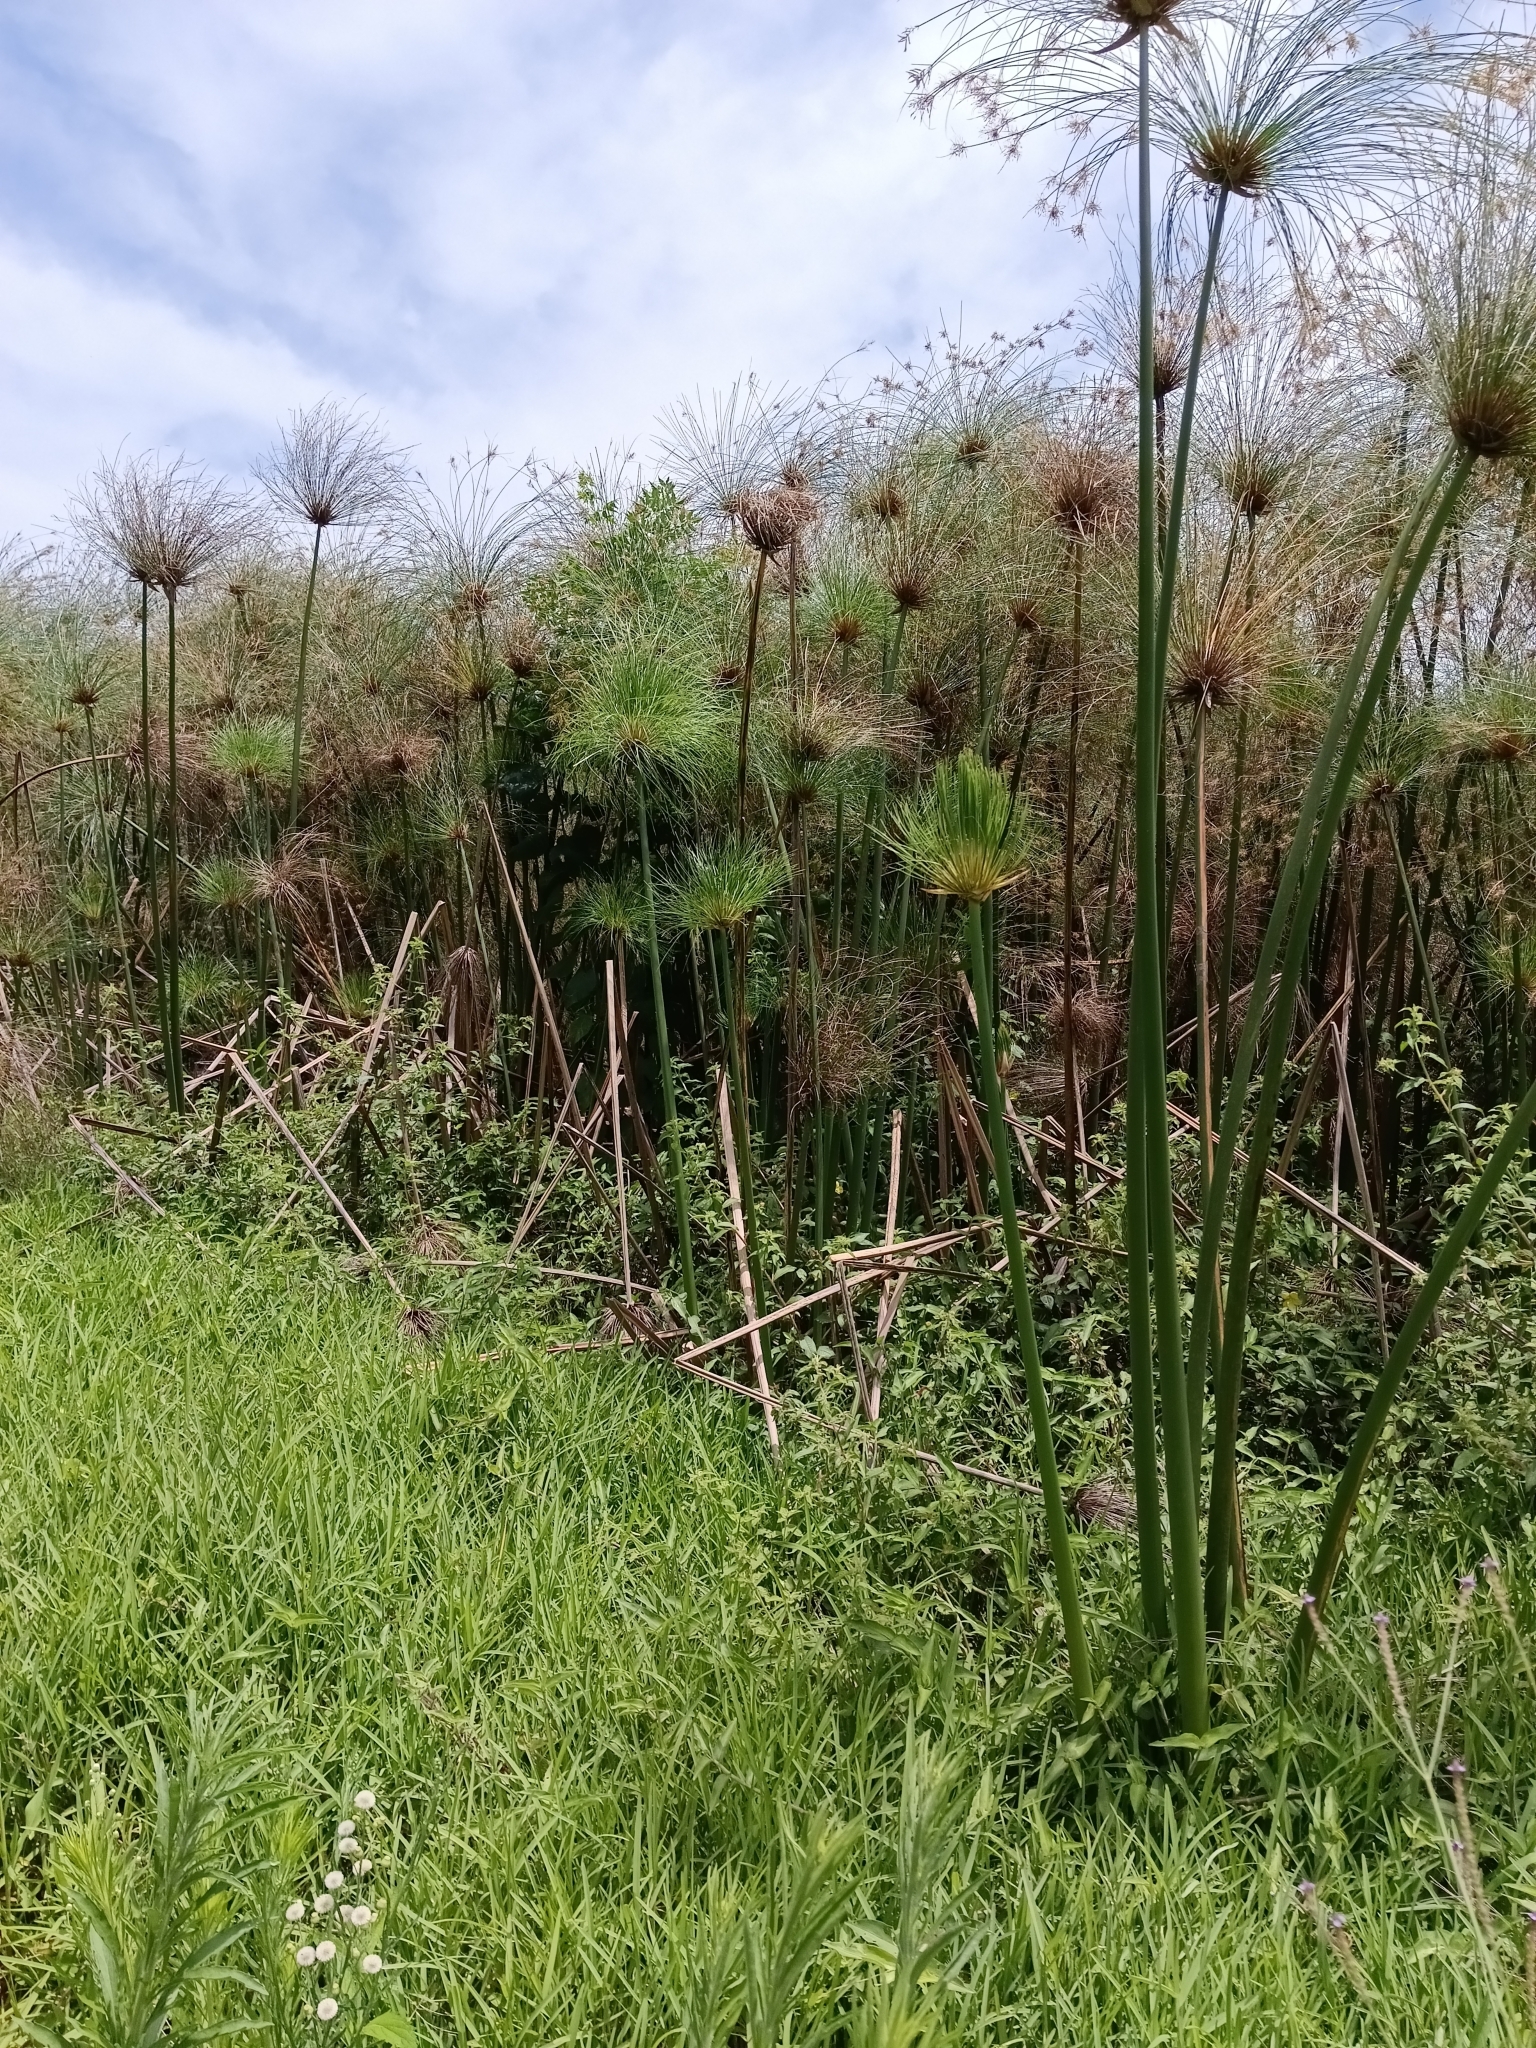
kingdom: Plantae
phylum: Tracheophyta
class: Liliopsida
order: Poales
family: Cyperaceae
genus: Cyperus
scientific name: Cyperus papyrus
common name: Papyrus
